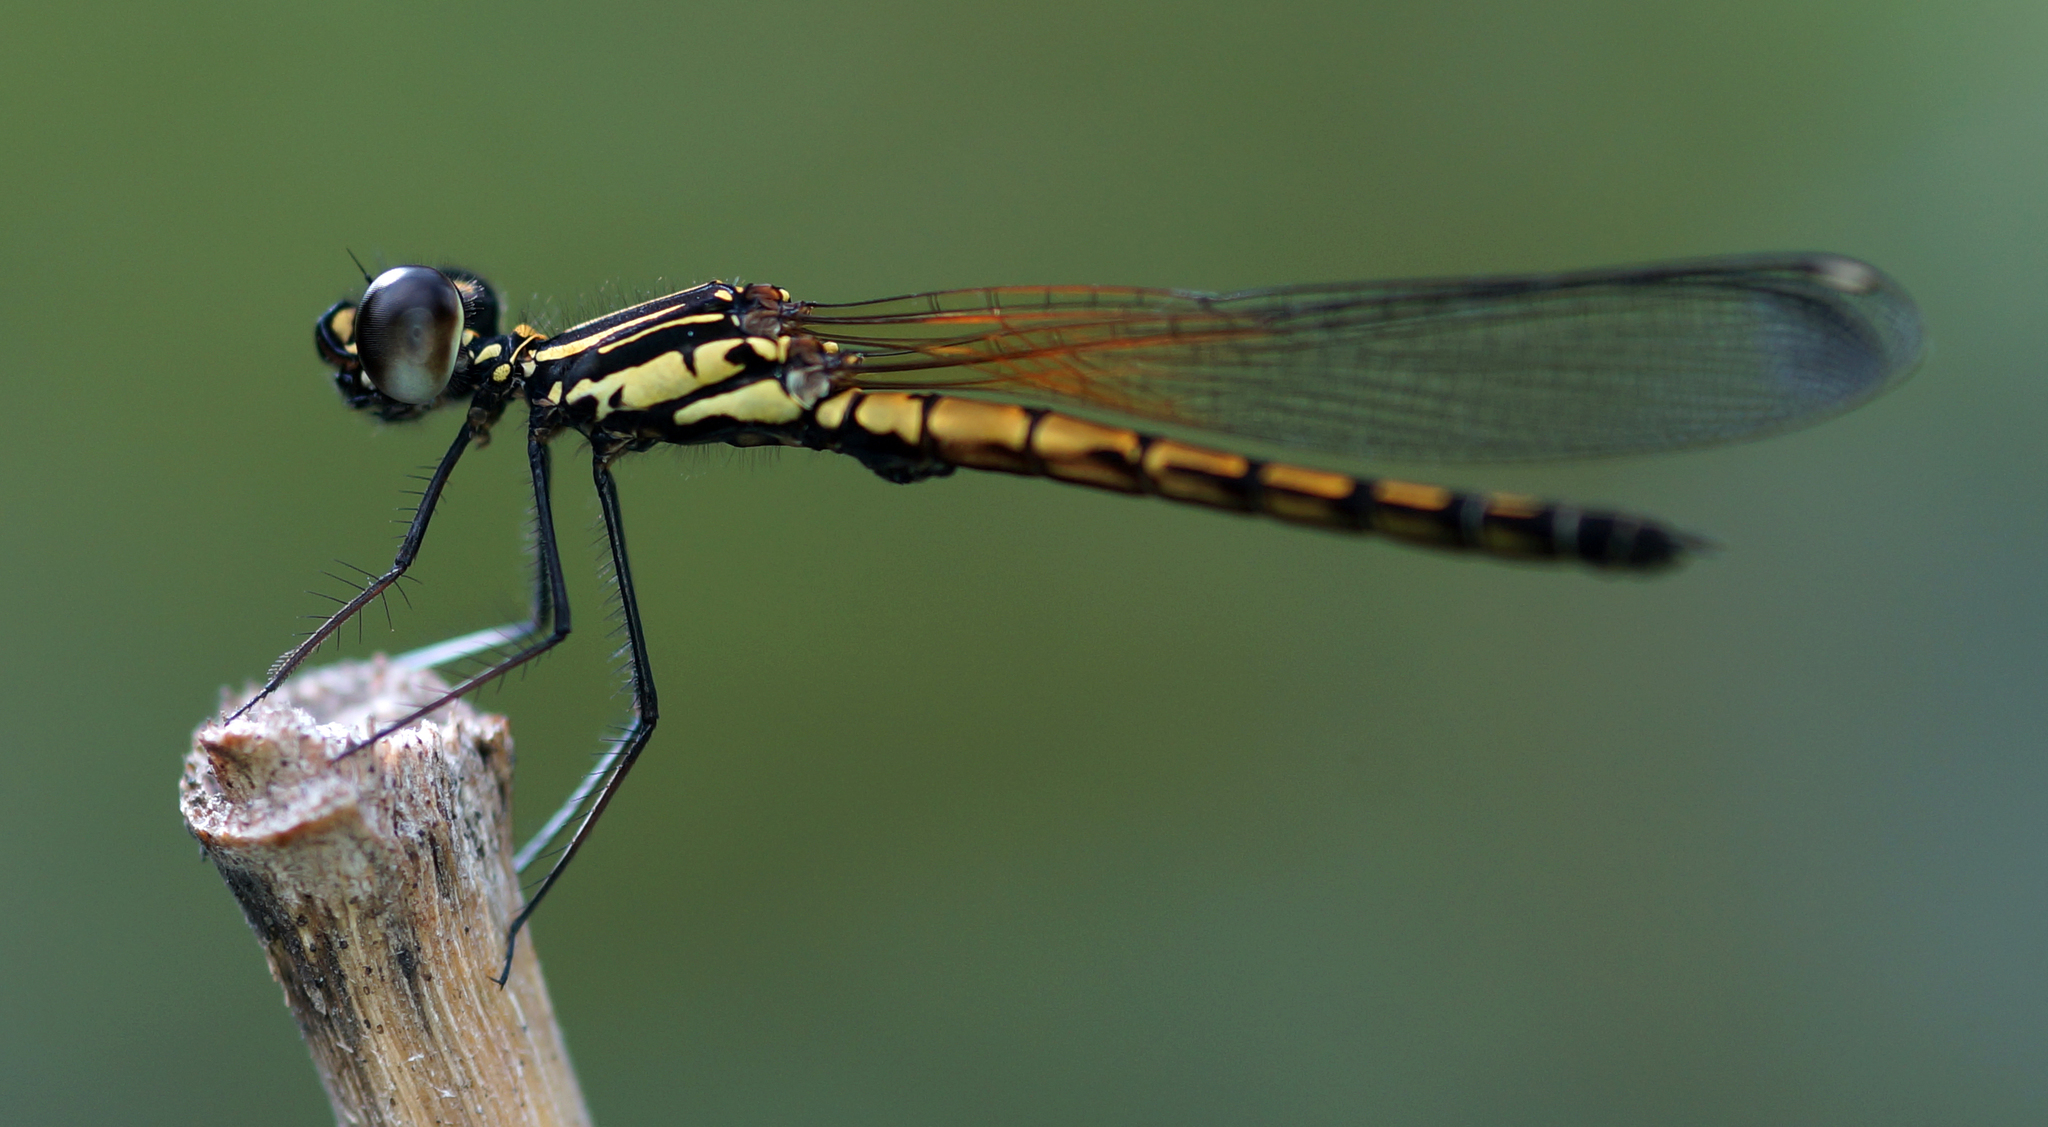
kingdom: Animalia
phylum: Arthropoda
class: Insecta
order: Odonata
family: Chlorocyphidae
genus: Libellago
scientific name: Libellago lineata
